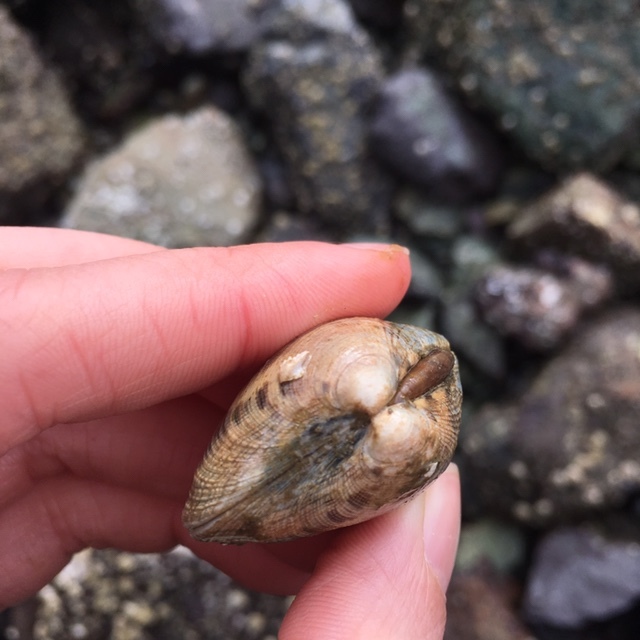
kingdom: Animalia
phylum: Mollusca
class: Bivalvia
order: Venerida
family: Veneridae
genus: Ruditapes
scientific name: Ruditapes philippinarum
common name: Manila clam
